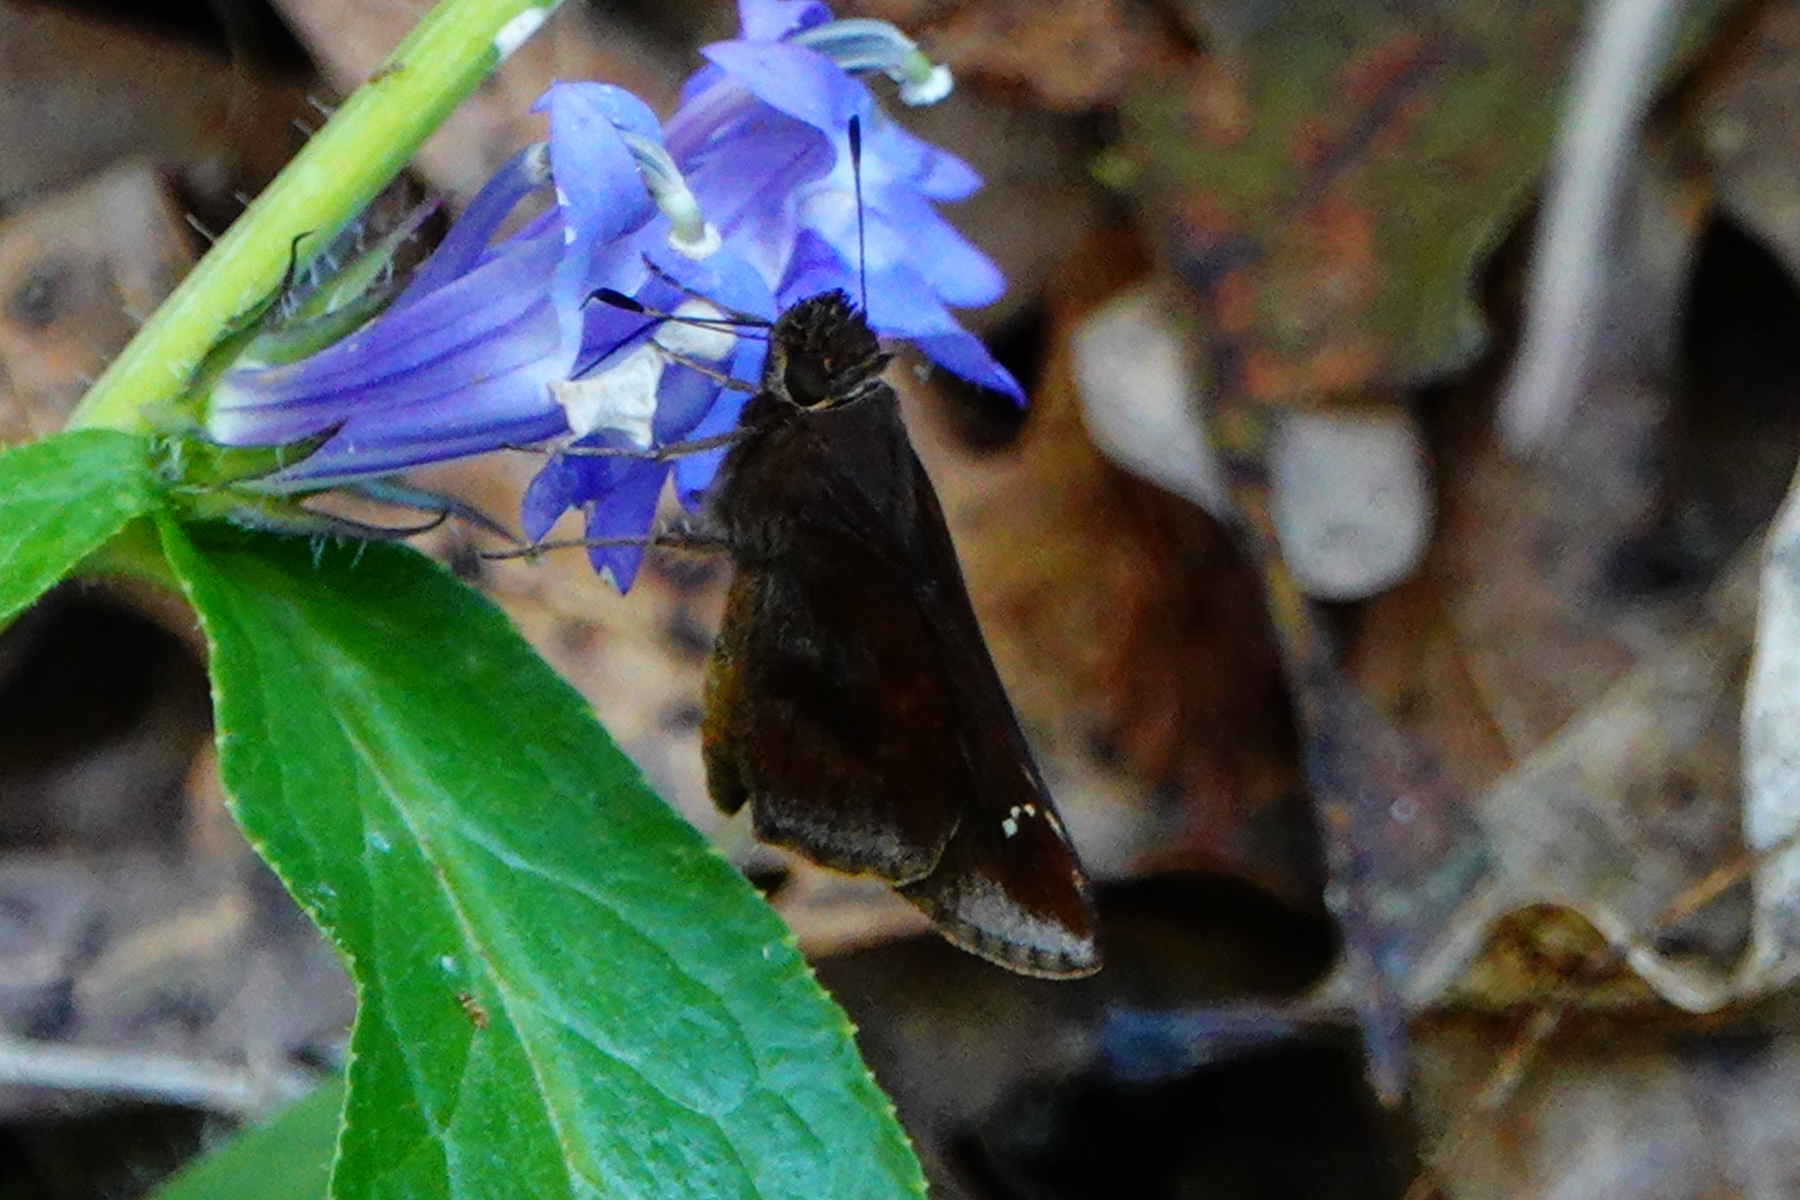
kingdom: Animalia
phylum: Arthropoda
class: Insecta
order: Lepidoptera
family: Hesperiidae
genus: Lerema
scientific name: Lerema accius
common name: Clouded skipper
